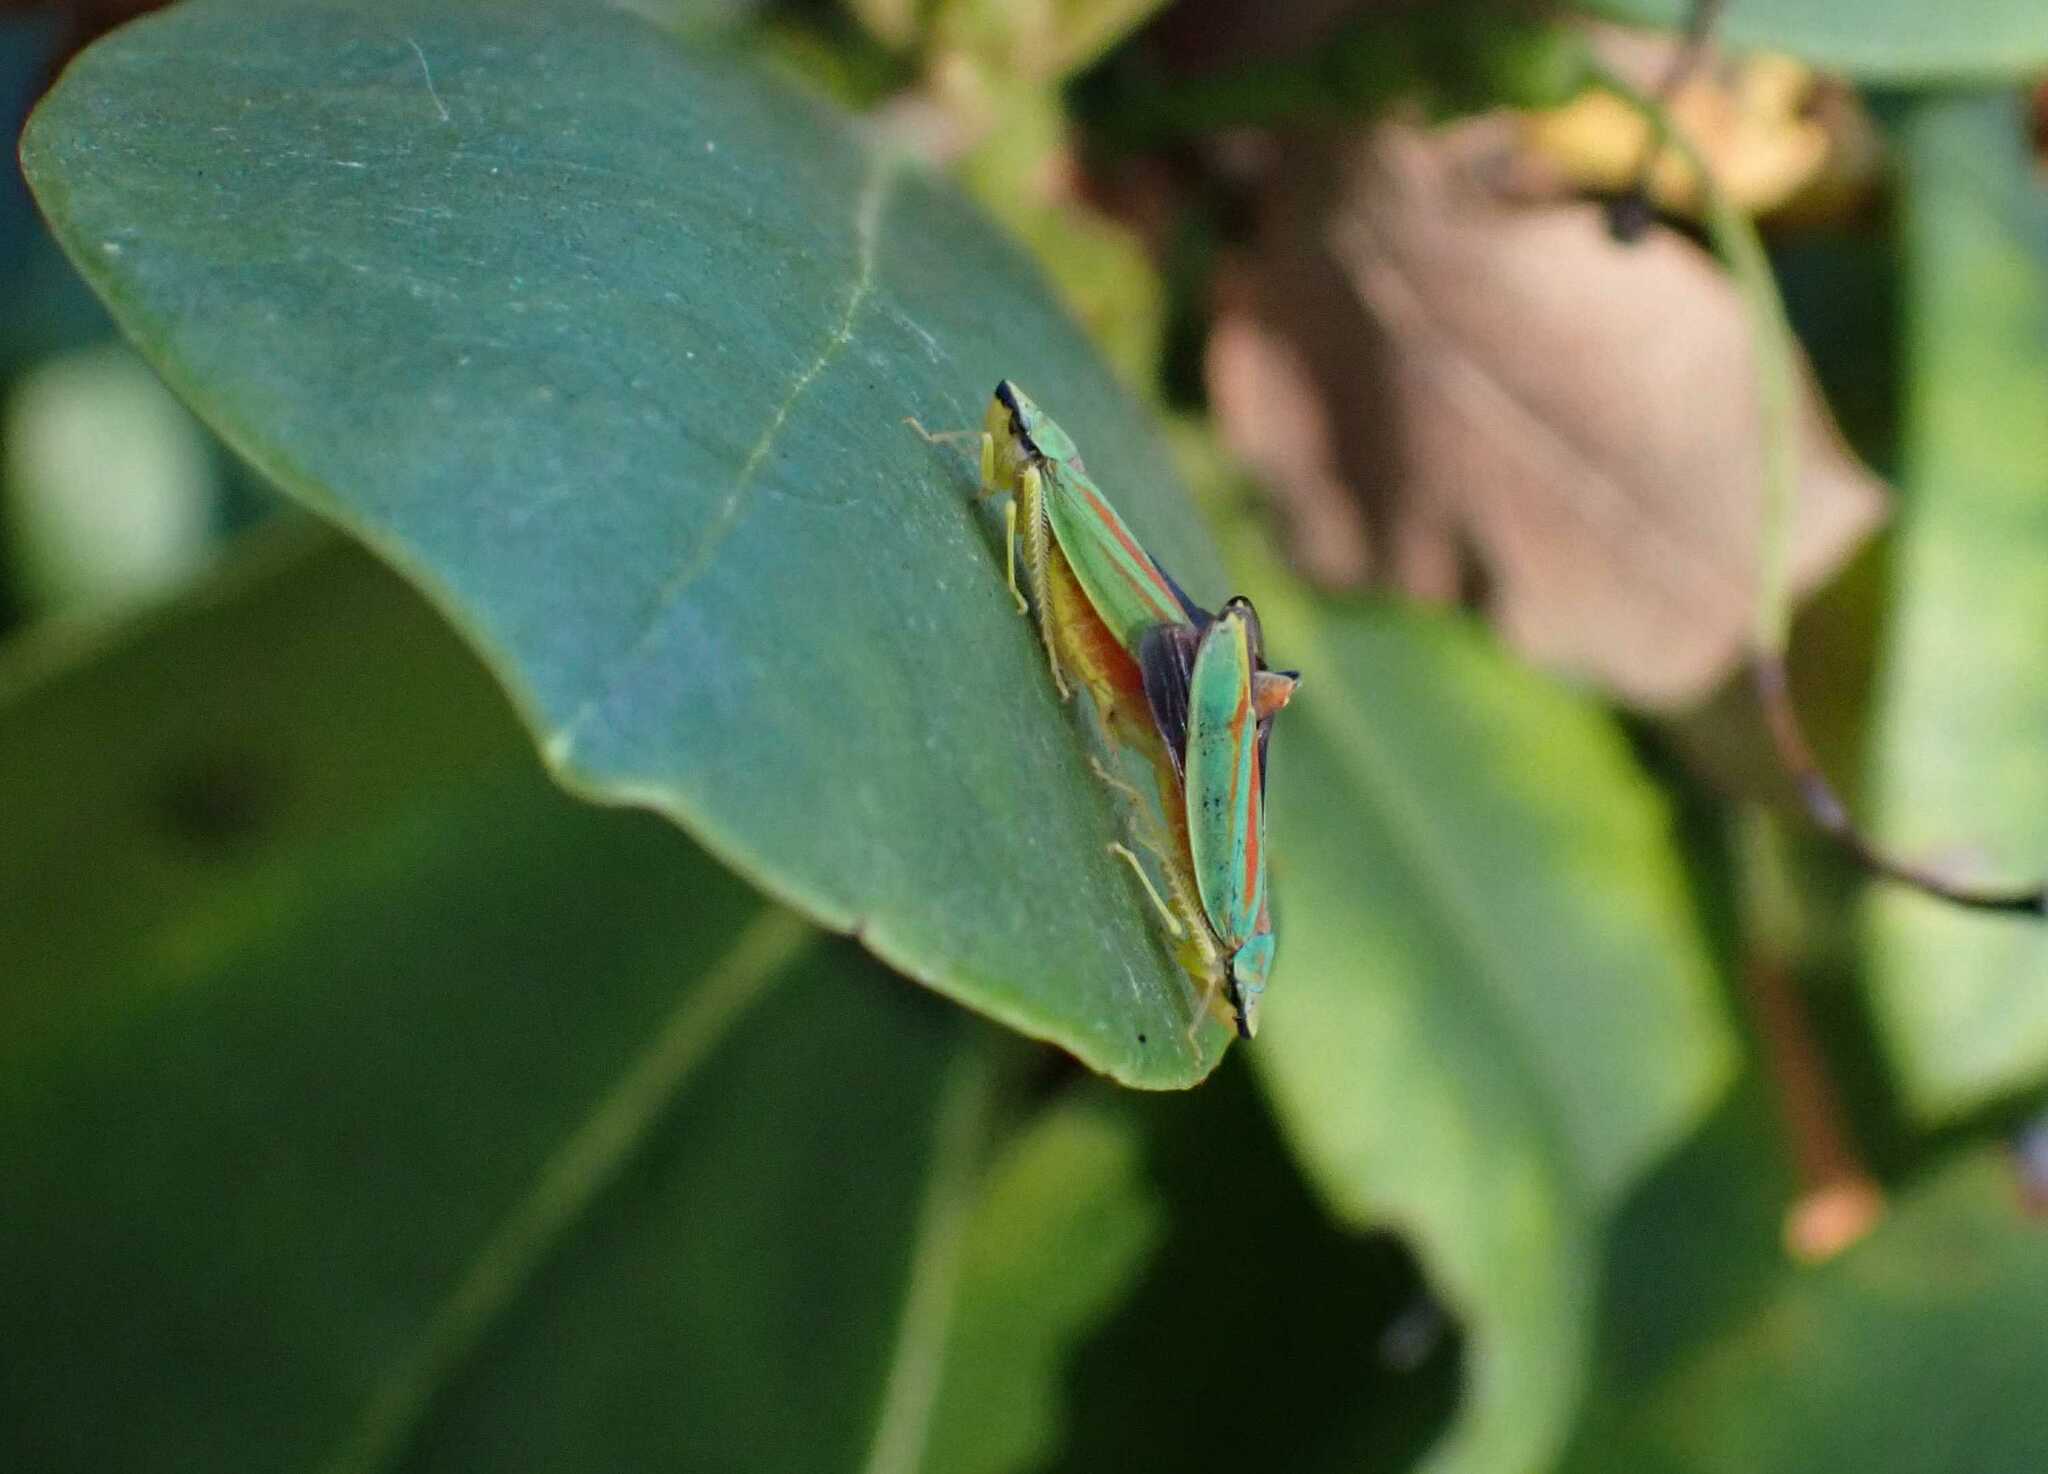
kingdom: Animalia
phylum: Arthropoda
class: Insecta
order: Hemiptera
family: Cicadellidae
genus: Graphocephala
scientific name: Graphocephala fennahi
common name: Rhododendron leafhopper
